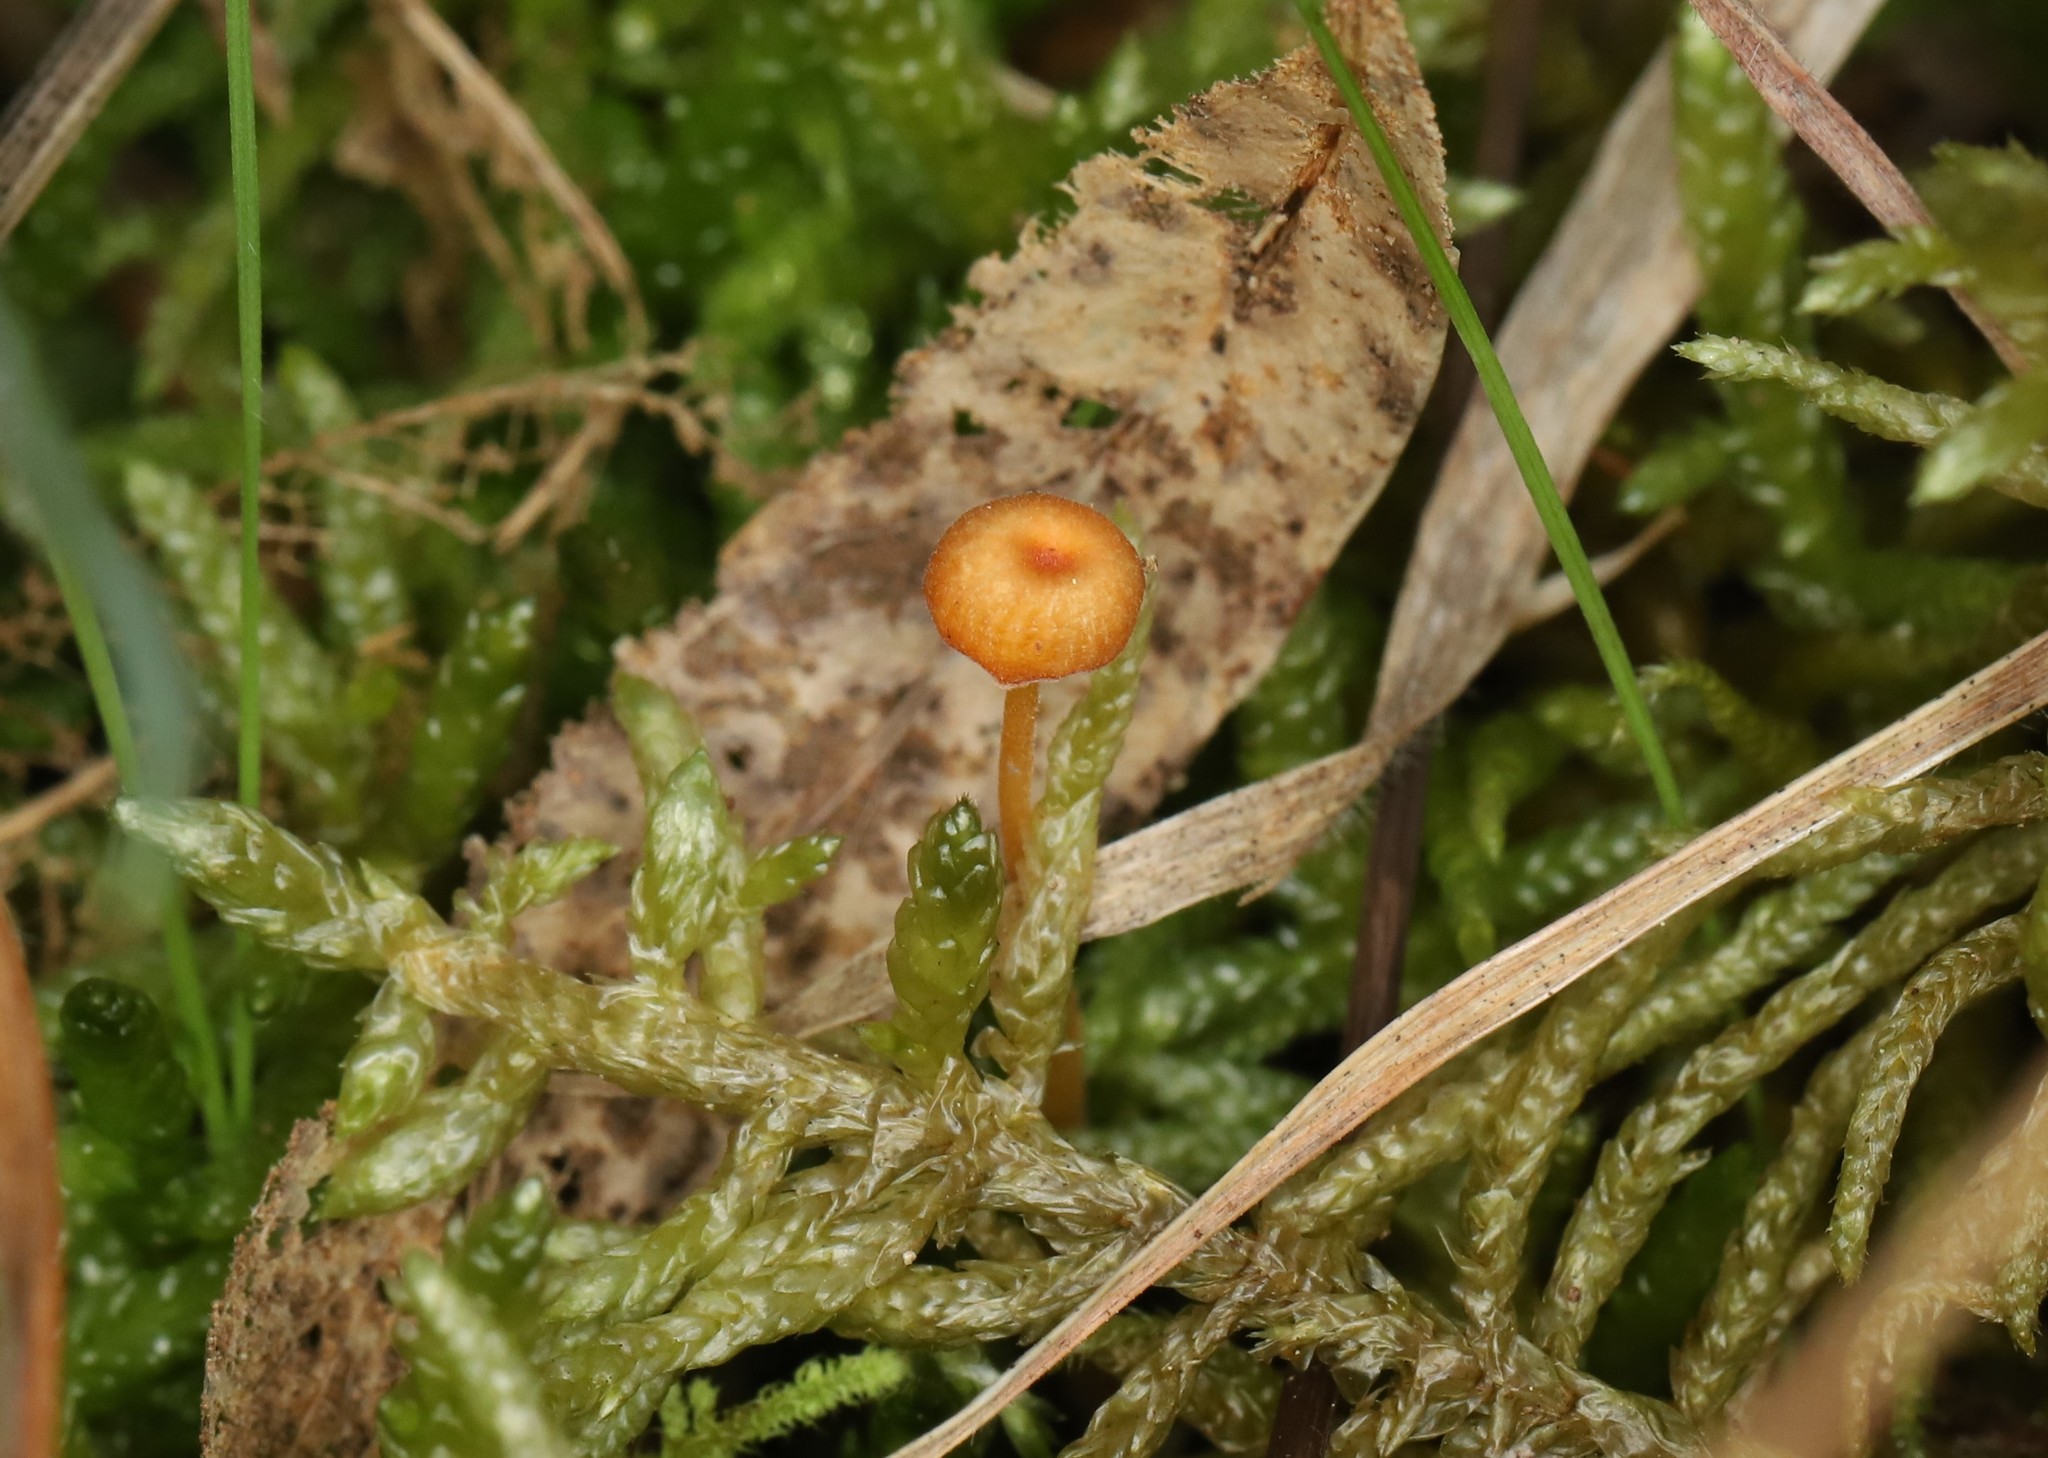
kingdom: Fungi
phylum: Basidiomycota
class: Agaricomycetes
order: Hymenochaetales
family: Rickenellaceae
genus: Rickenella
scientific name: Rickenella fibula
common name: Orange mosscap
